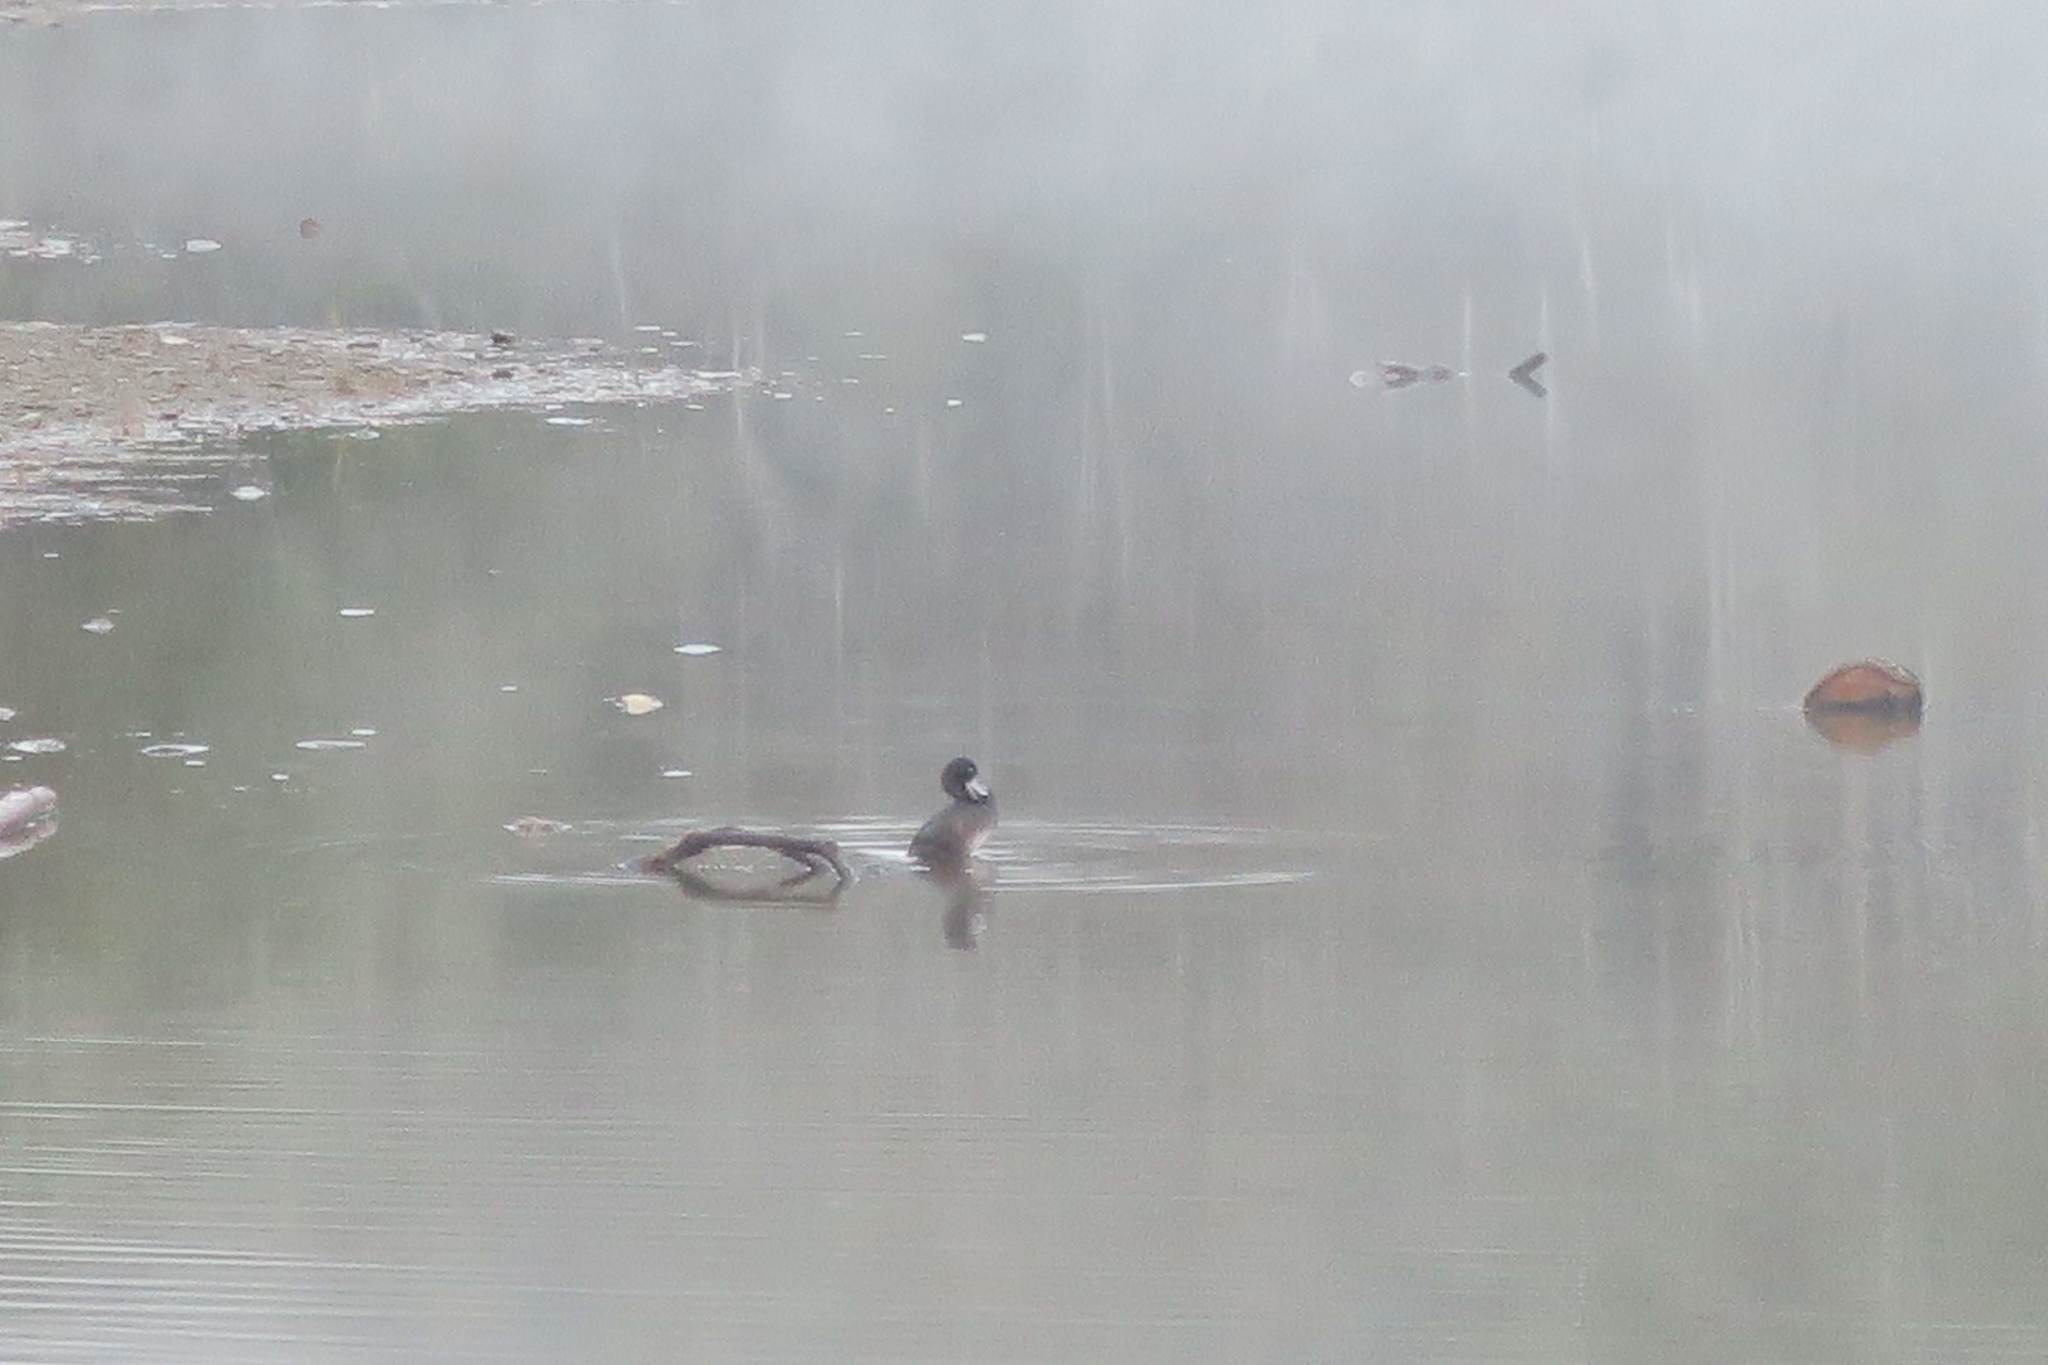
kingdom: Animalia
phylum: Chordata
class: Aves
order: Anseriformes
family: Anatidae
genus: Aythya
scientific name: Aythya novaeseelandiae
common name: New zealand scaup
